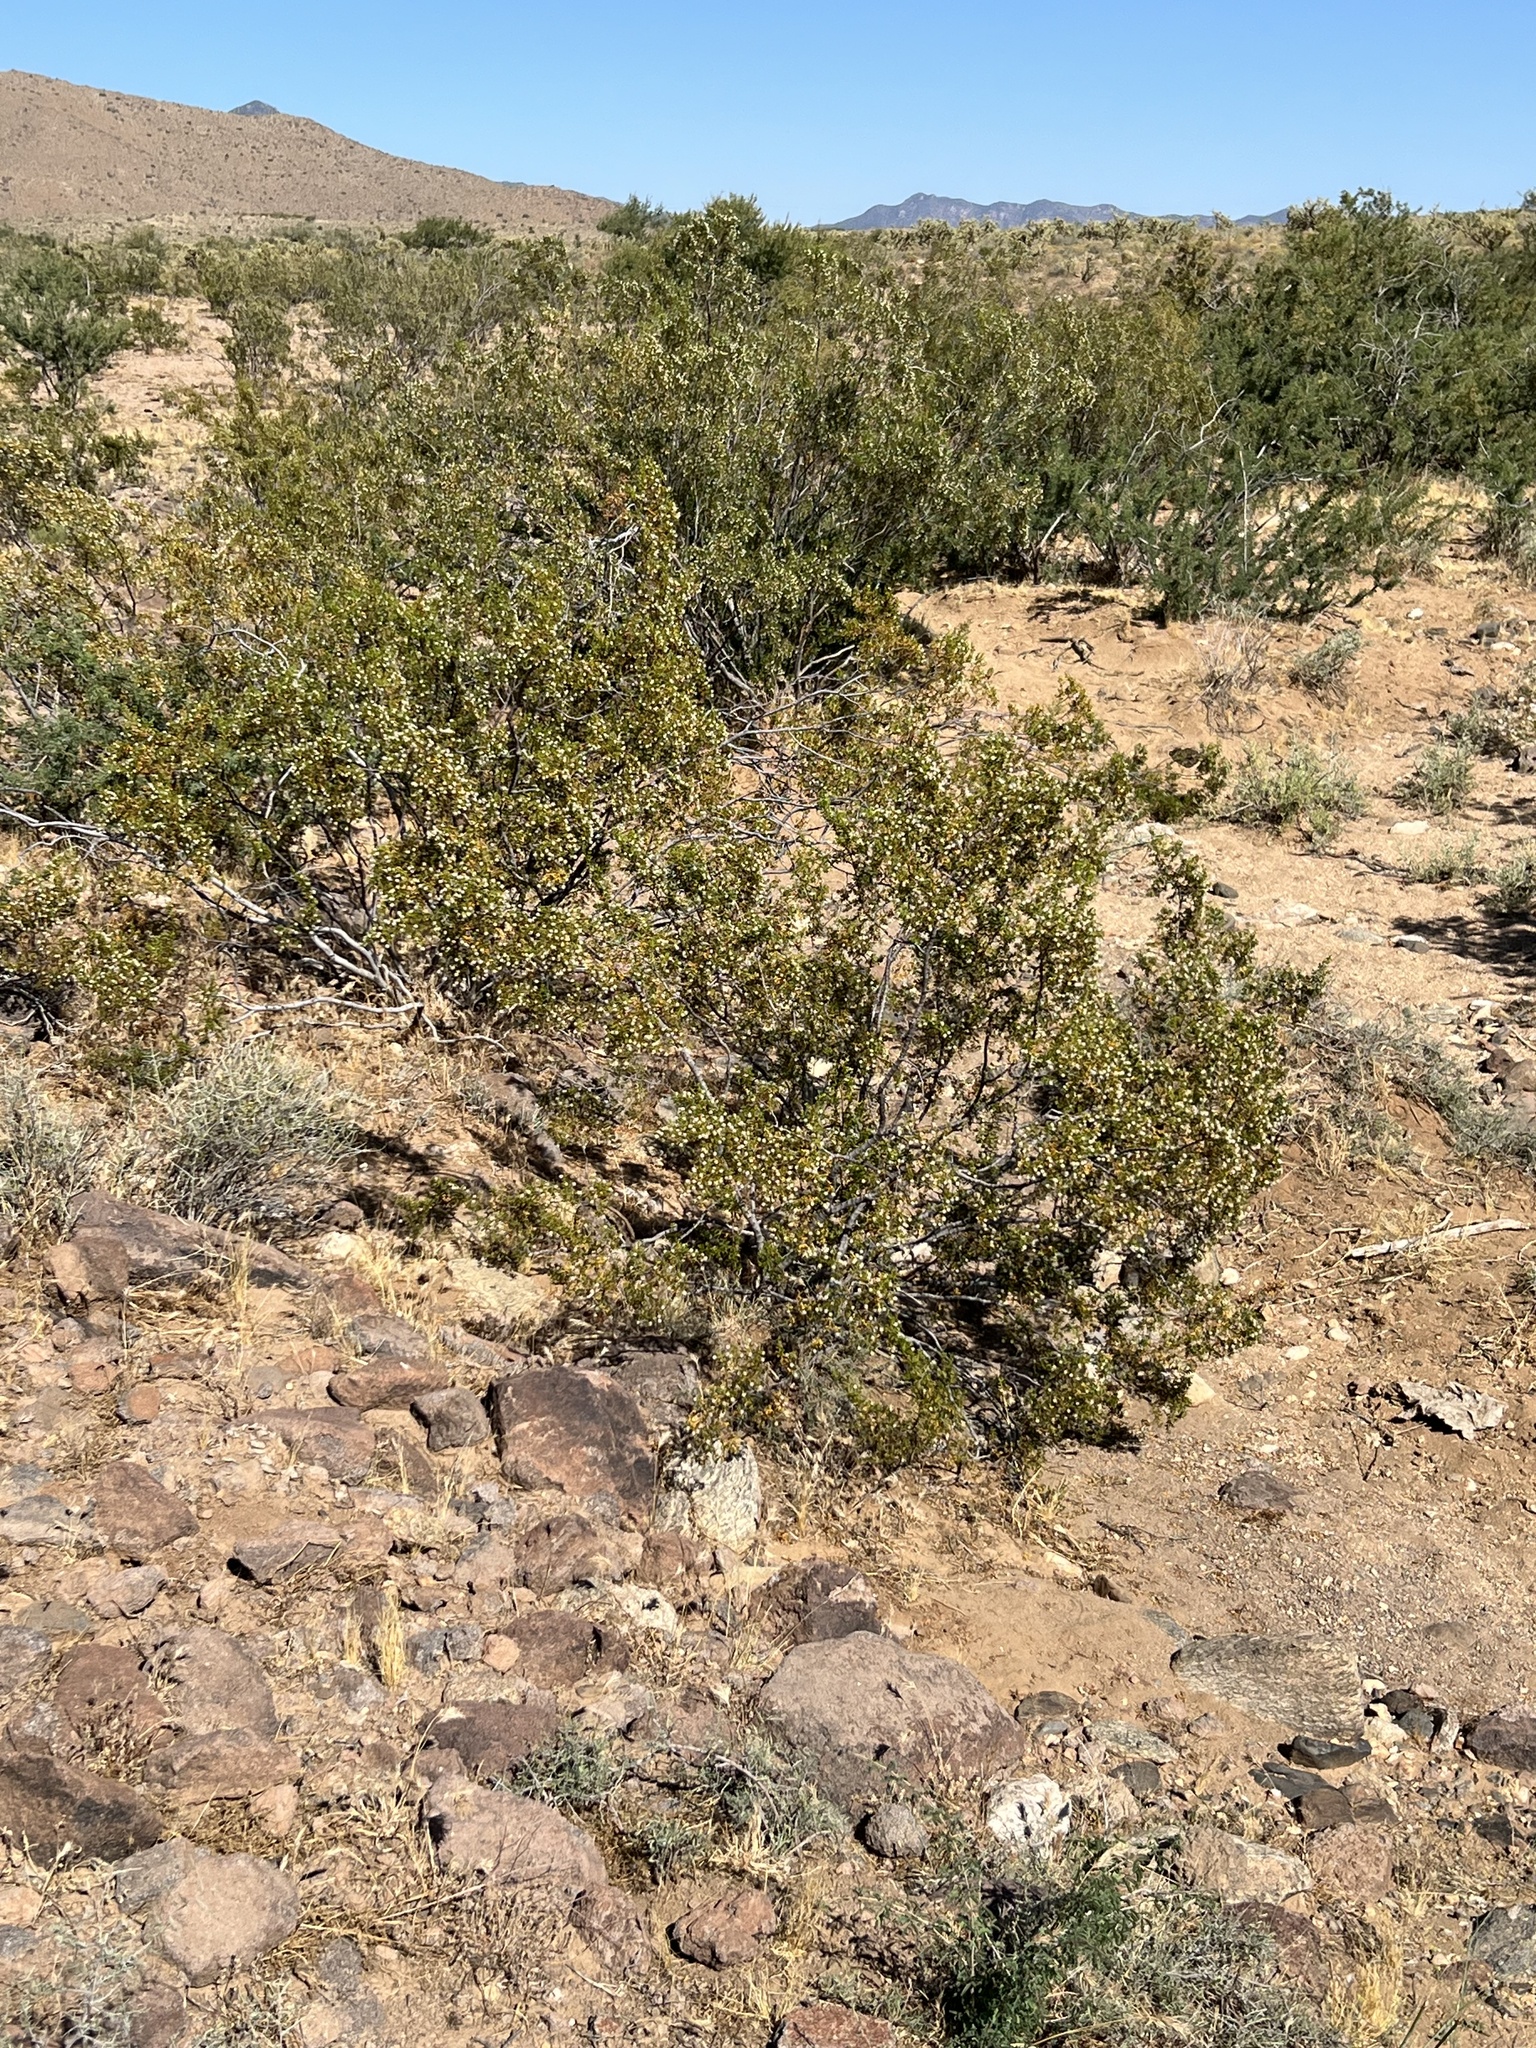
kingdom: Plantae
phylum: Tracheophyta
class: Magnoliopsida
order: Zygophyllales
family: Zygophyllaceae
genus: Larrea
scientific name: Larrea tridentata
